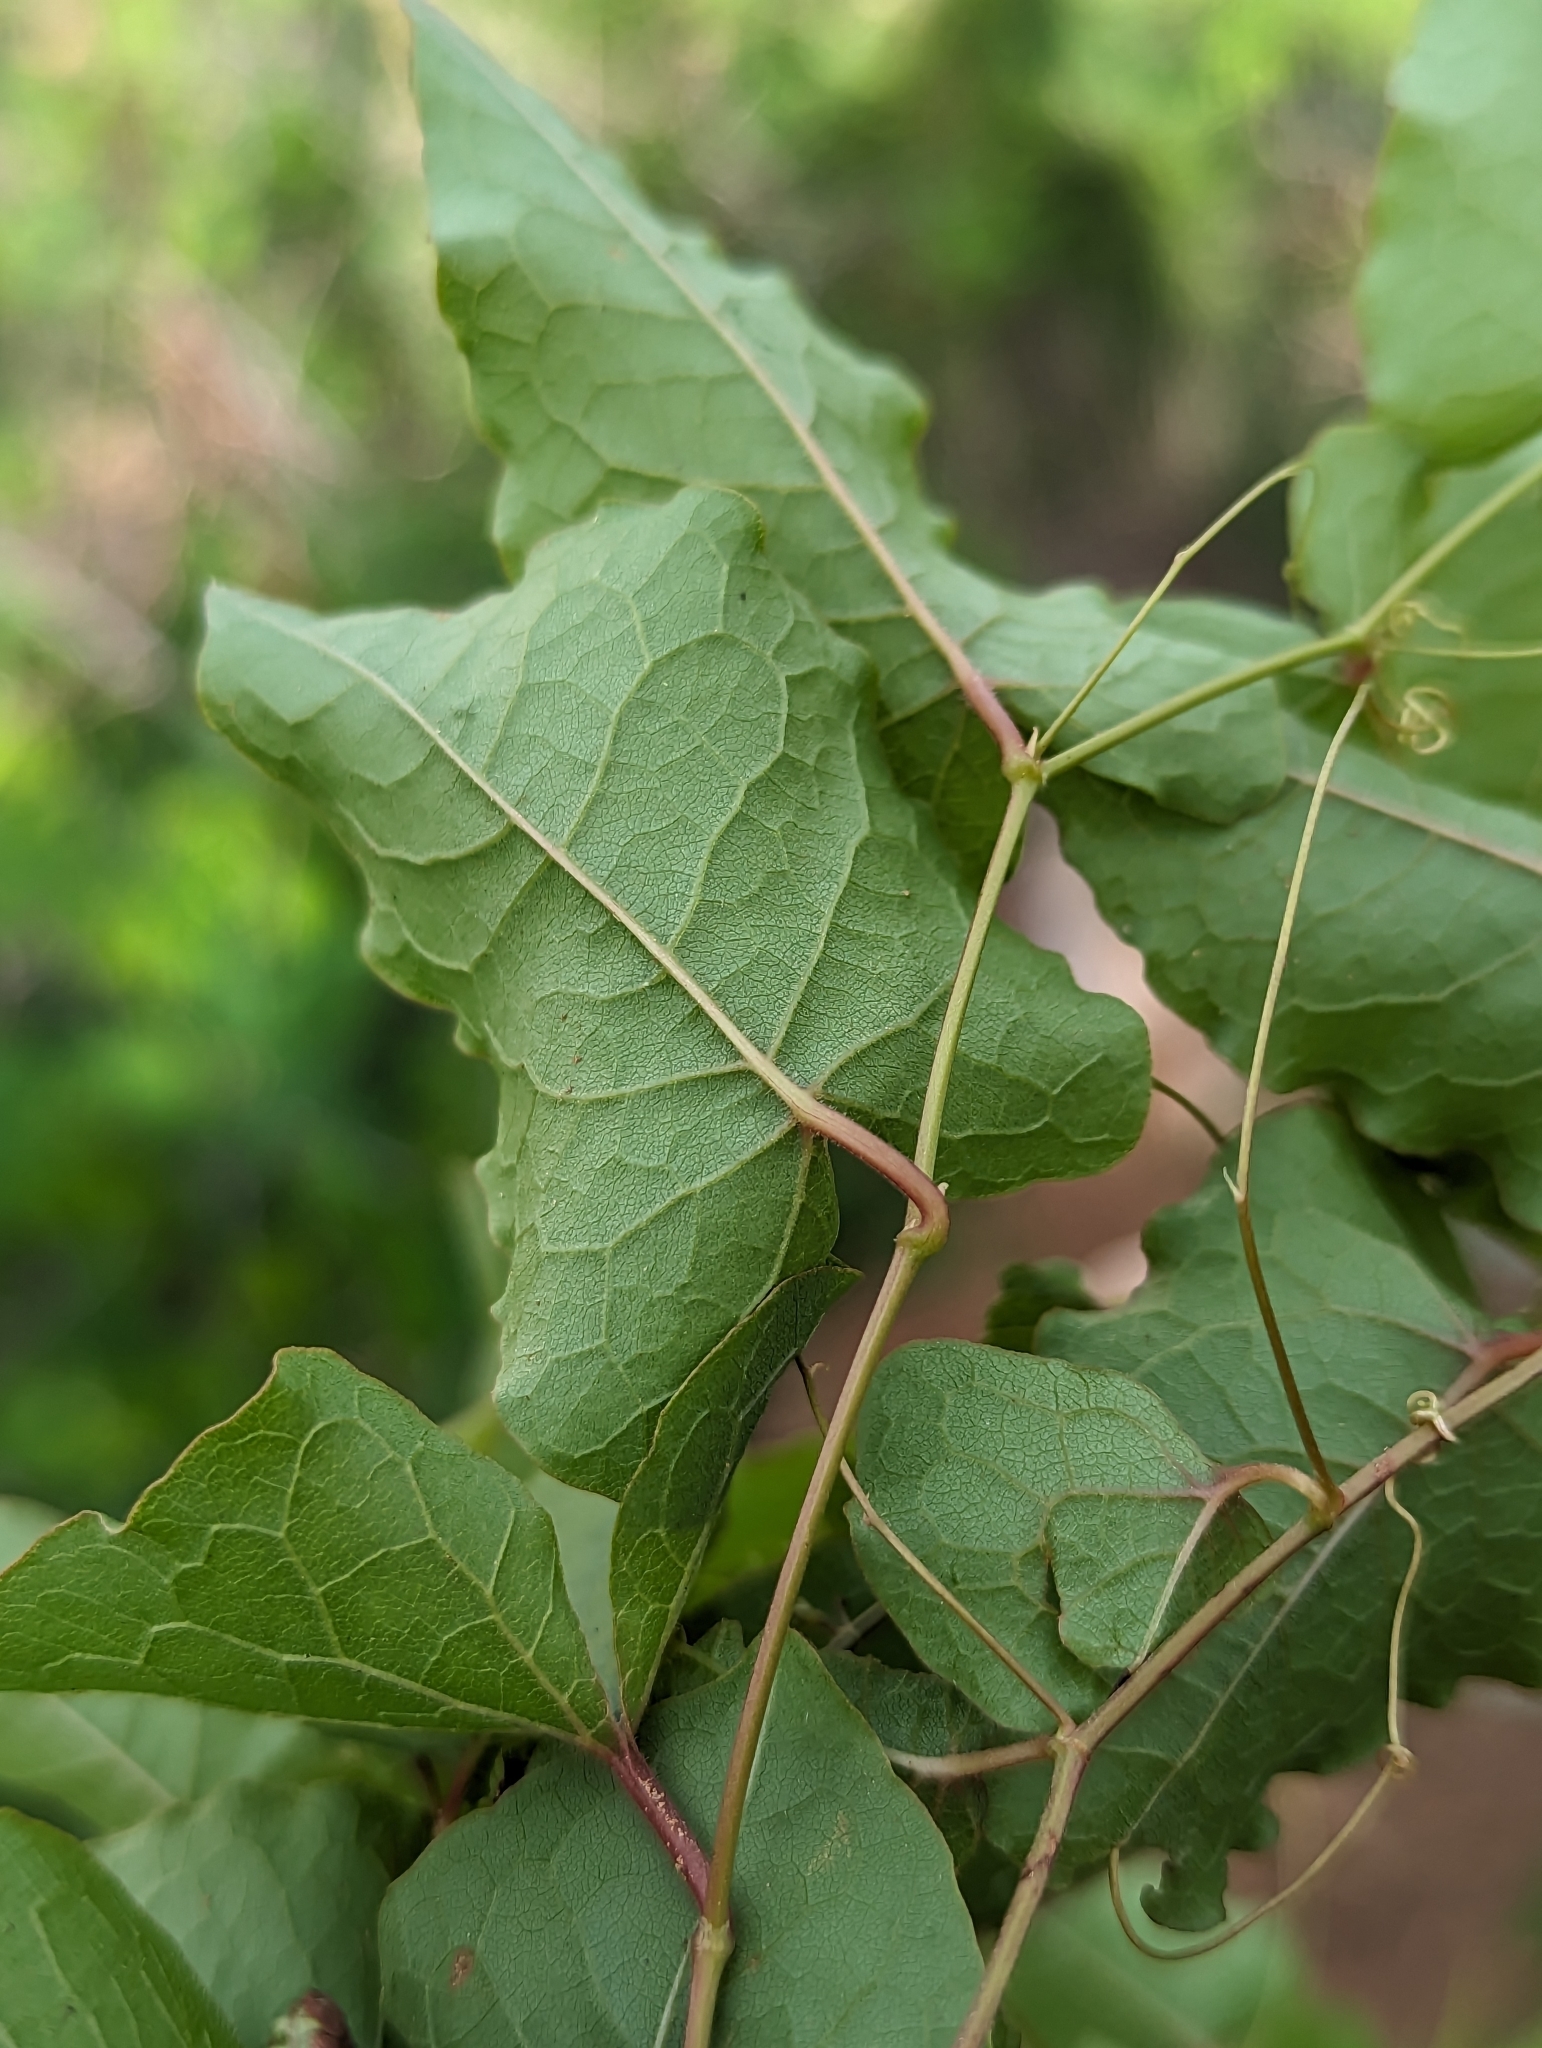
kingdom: Plantae
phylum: Tracheophyta
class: Magnoliopsida
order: Caryophyllales
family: Polygonaceae
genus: Antigonon
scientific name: Antigonon leptopus
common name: Coral vine
